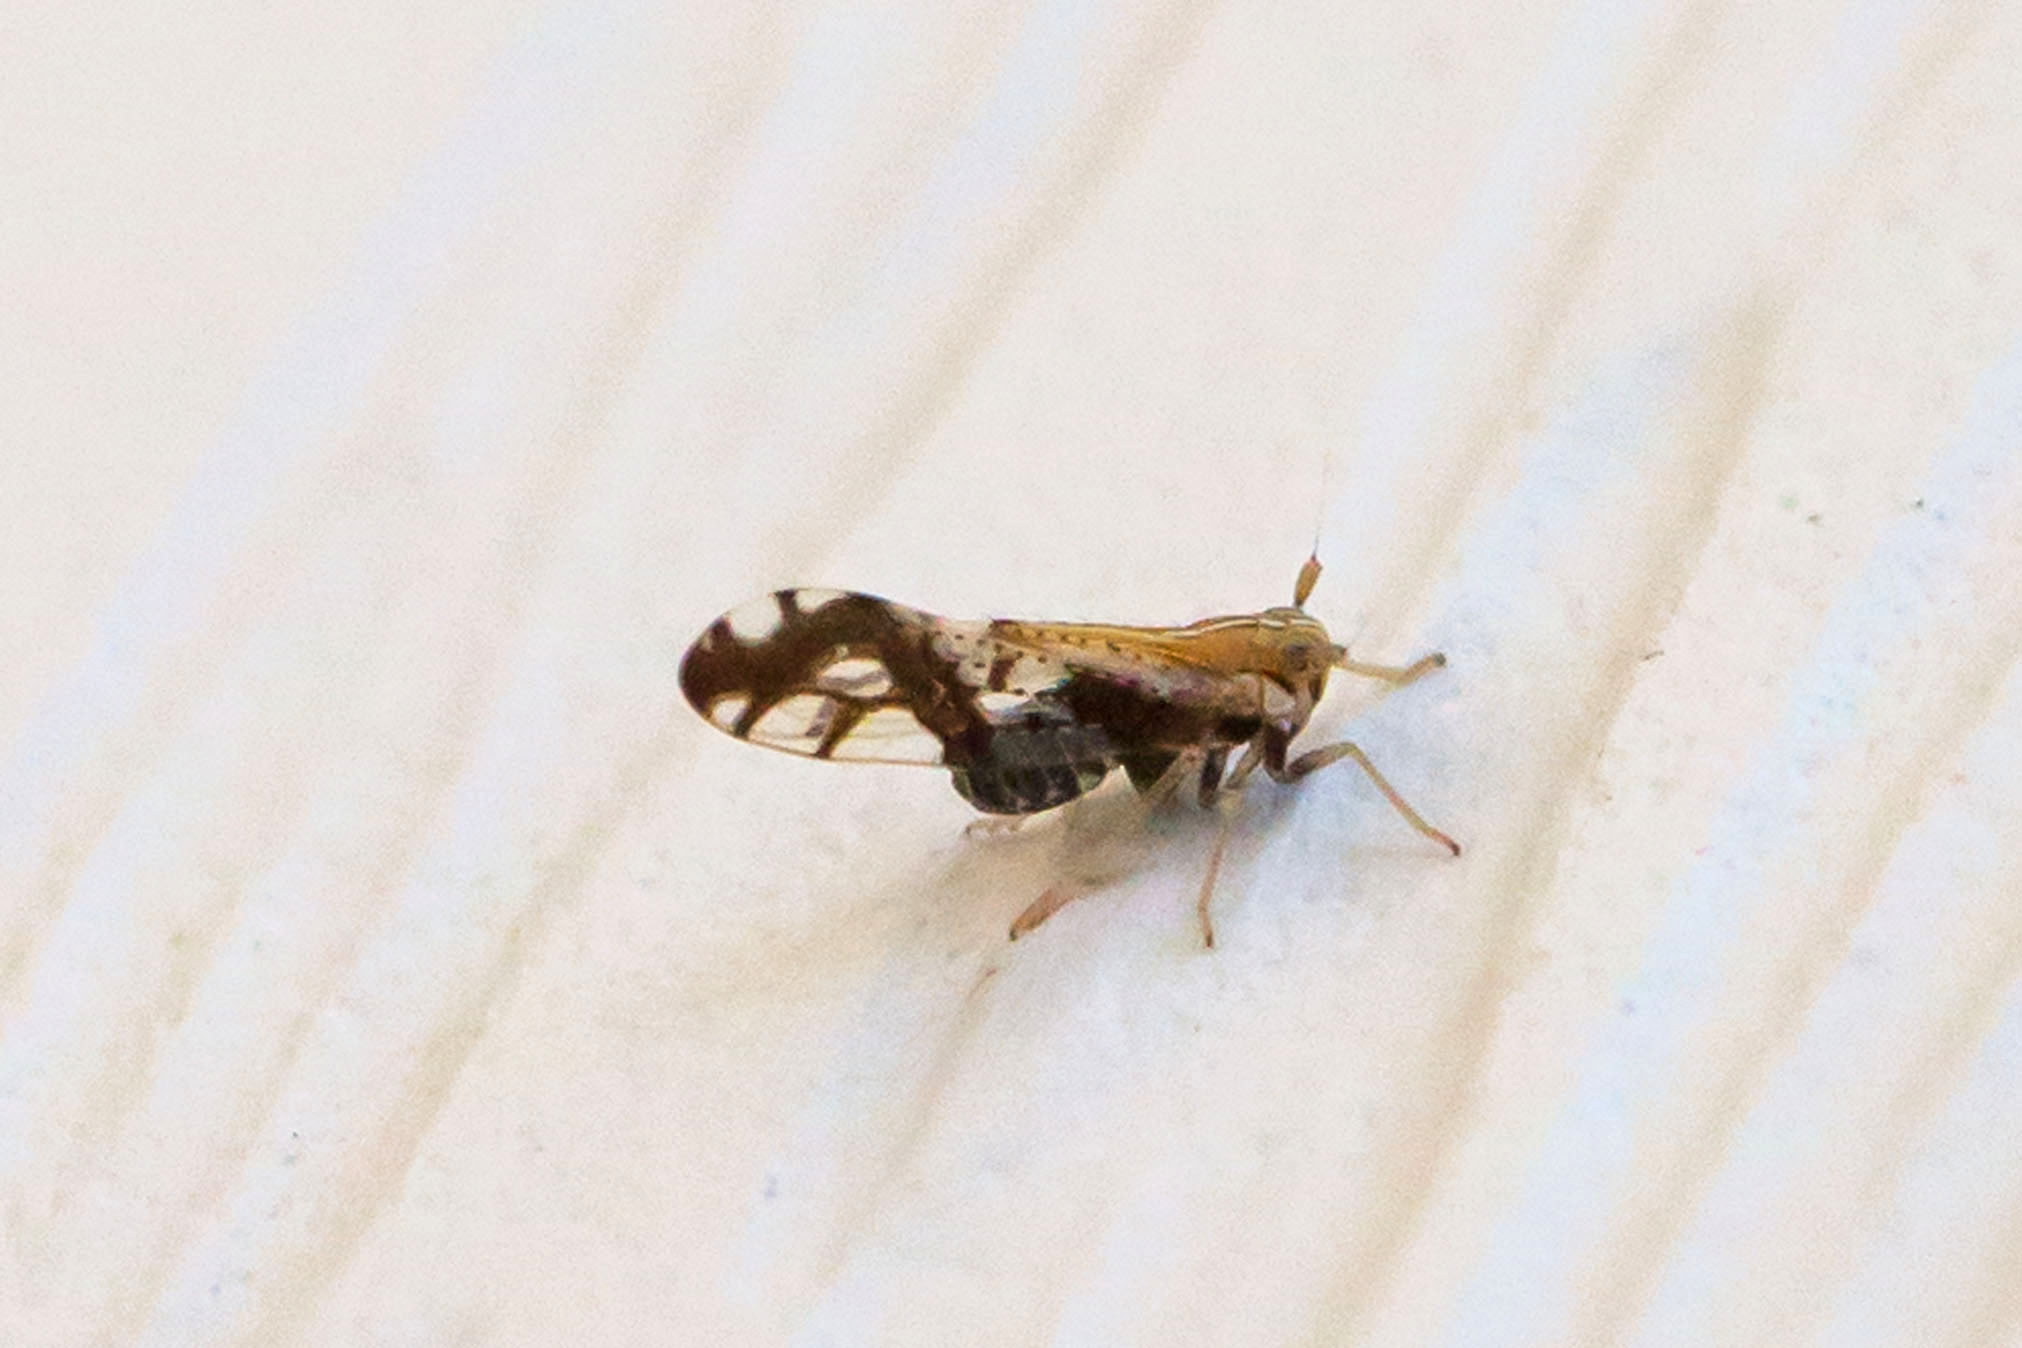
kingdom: Animalia
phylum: Arthropoda
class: Insecta
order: Hemiptera
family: Delphacidae
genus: Liburniella
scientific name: Liburniella ornata
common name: Ornate planthopper
